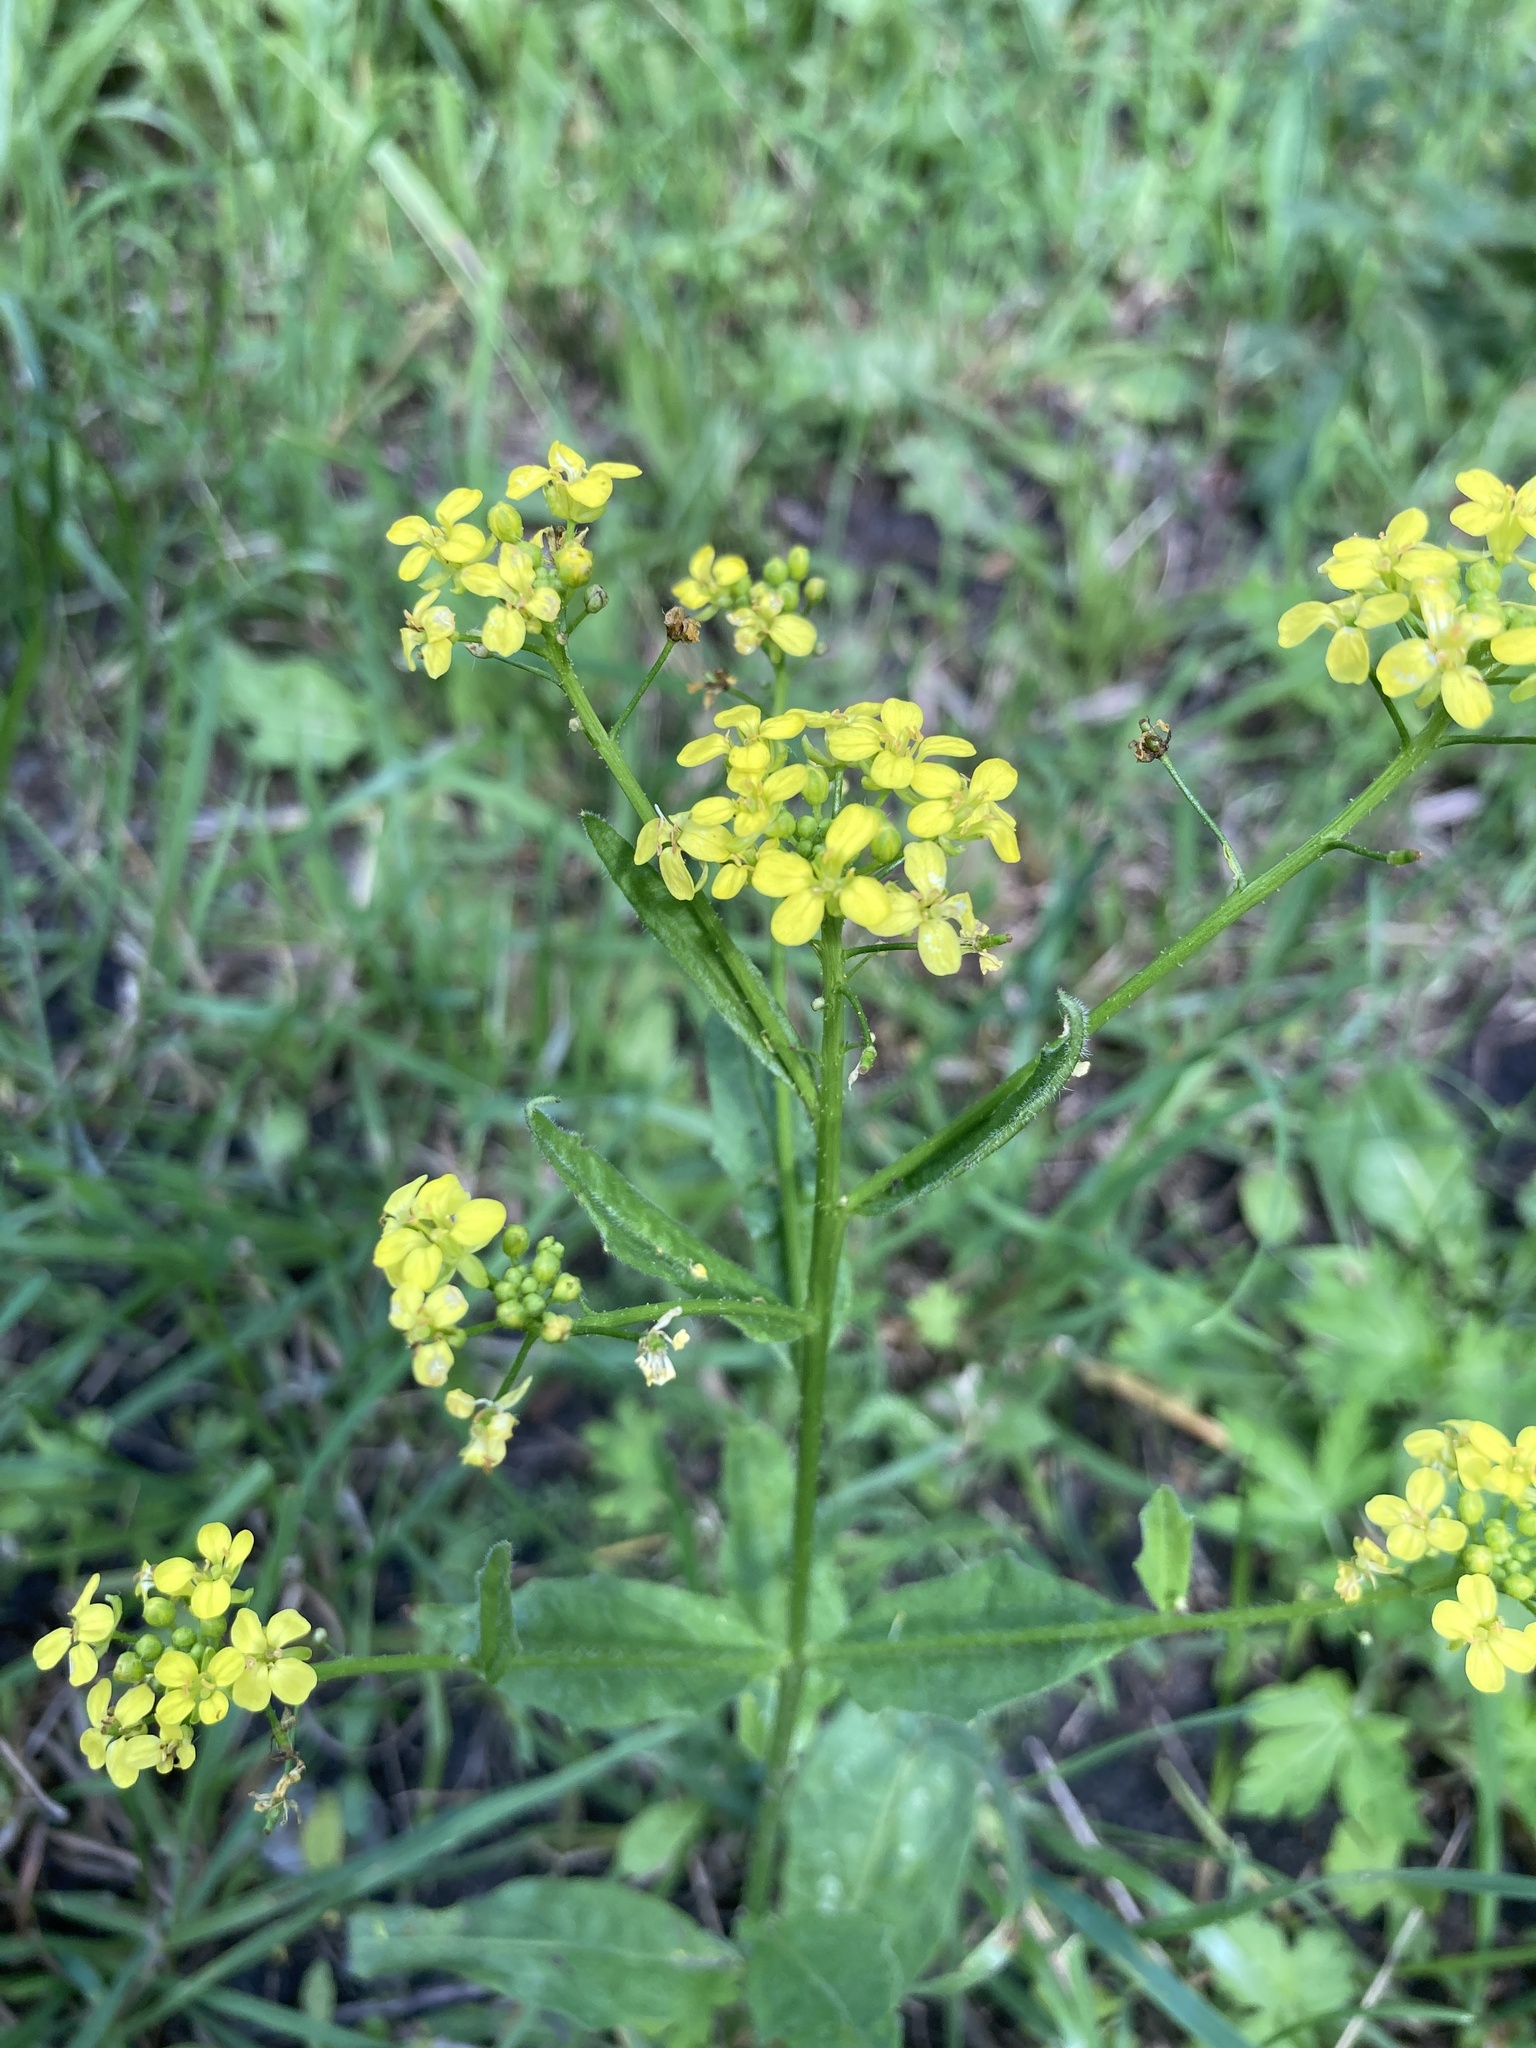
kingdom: Plantae
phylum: Tracheophyta
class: Magnoliopsida
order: Brassicales
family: Brassicaceae
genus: Bunias
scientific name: Bunias orientalis
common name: Warty-cabbage
